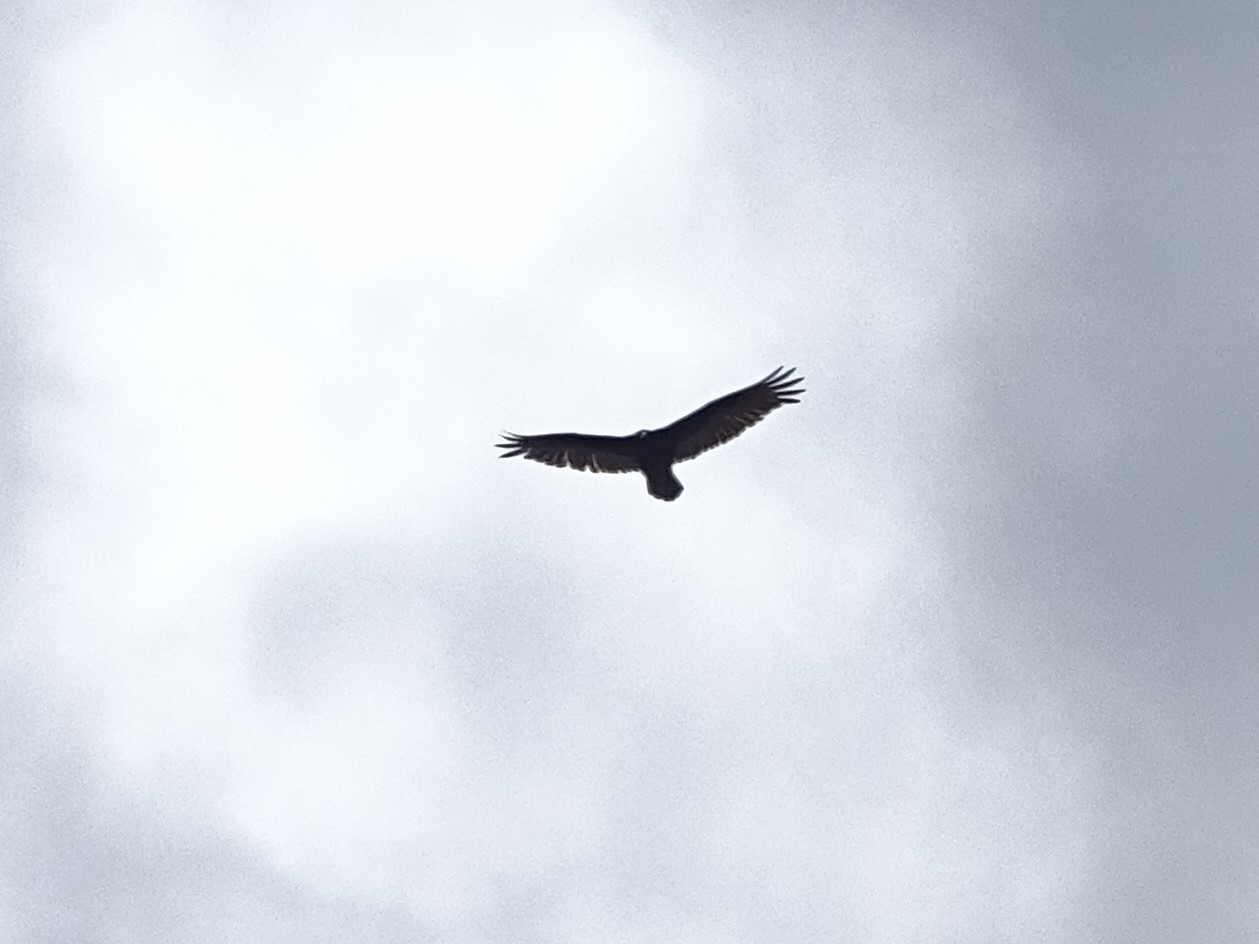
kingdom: Animalia
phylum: Chordata
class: Aves
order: Accipitriformes
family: Cathartidae
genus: Cathartes
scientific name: Cathartes aura
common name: Turkey vulture
